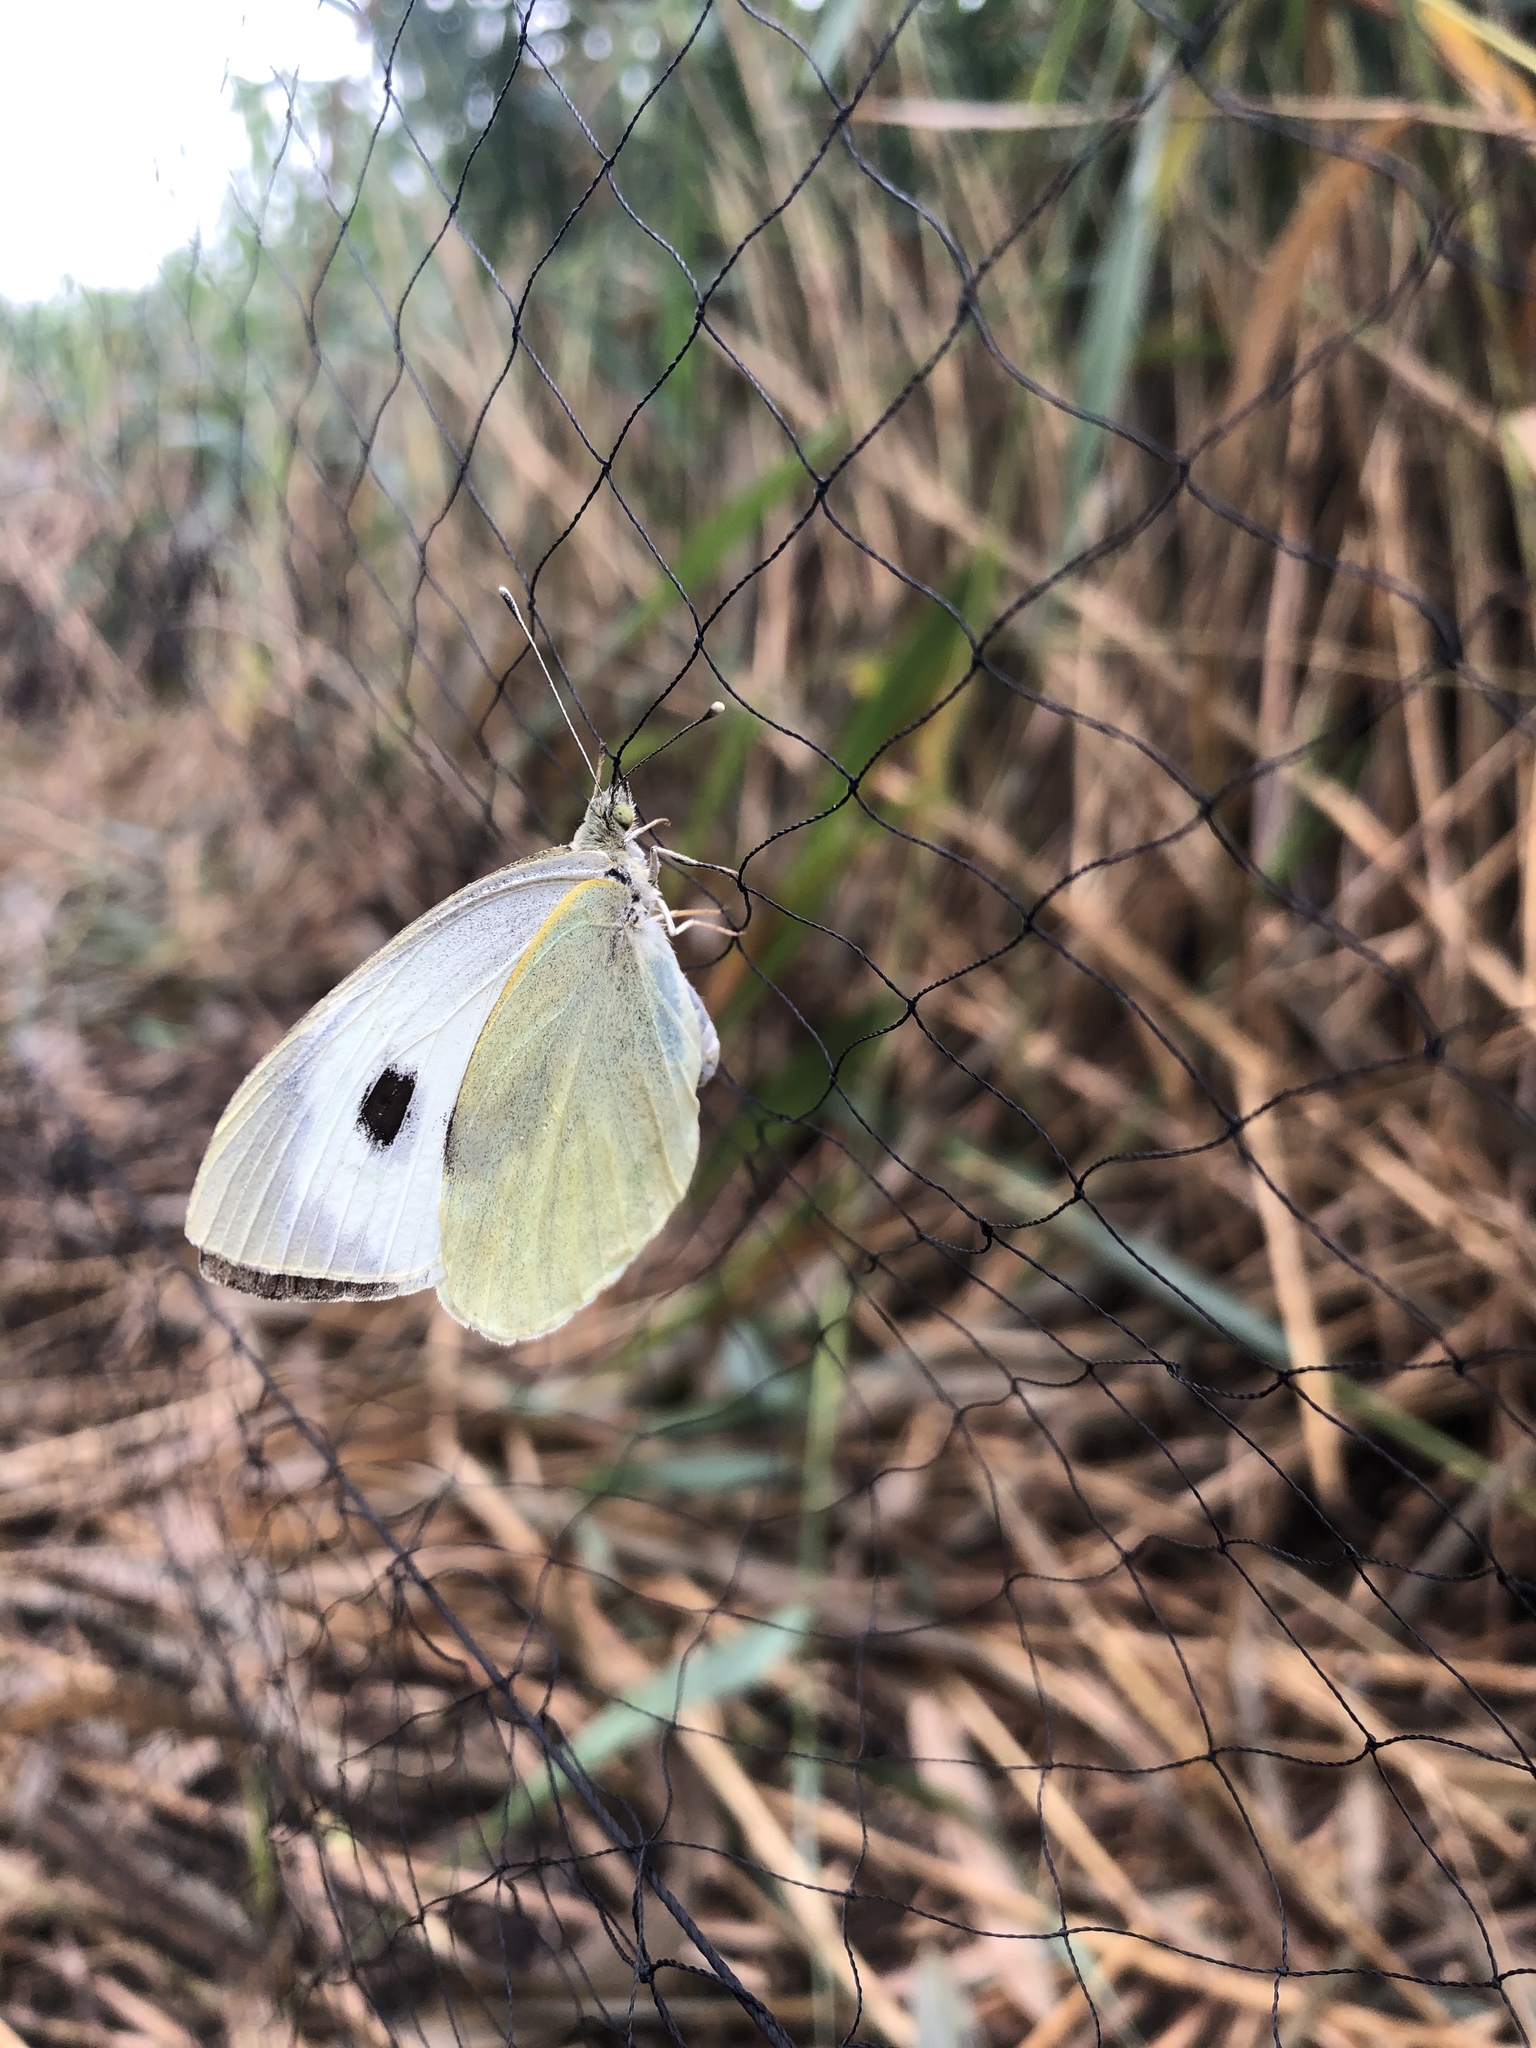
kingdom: Animalia
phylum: Arthropoda
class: Insecta
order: Lepidoptera
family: Pieridae
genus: Pieris
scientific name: Pieris brassicae
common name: Large white
